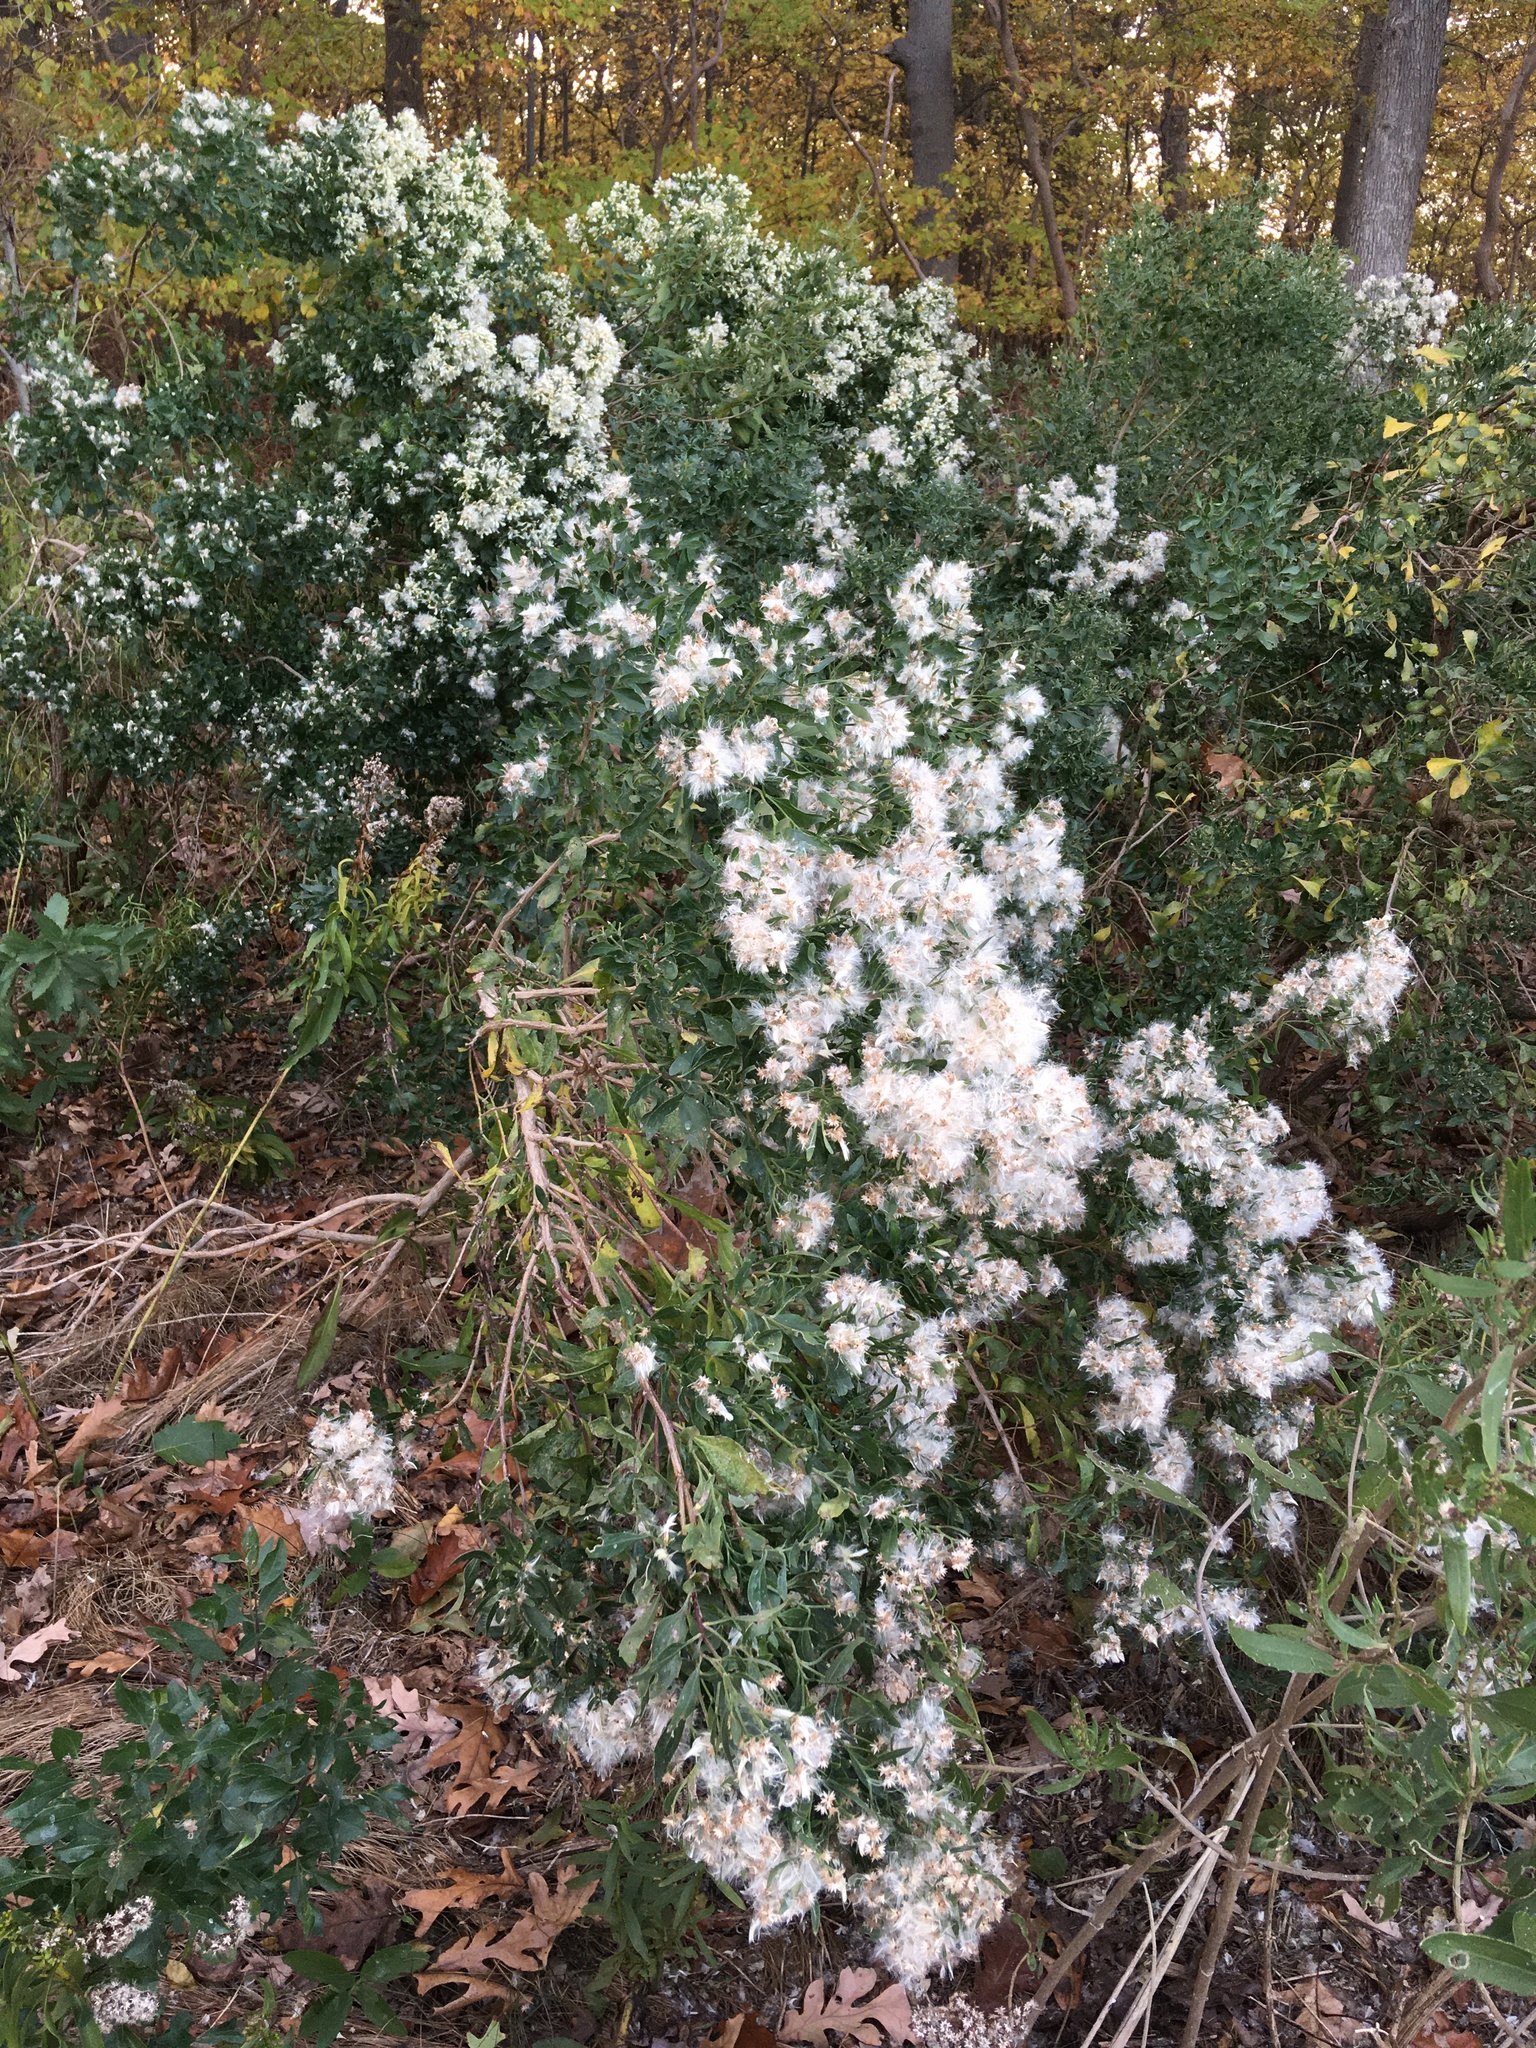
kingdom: Plantae
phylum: Tracheophyta
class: Magnoliopsida
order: Asterales
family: Asteraceae
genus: Baccharis
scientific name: Baccharis halimifolia
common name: Eastern baccharis
